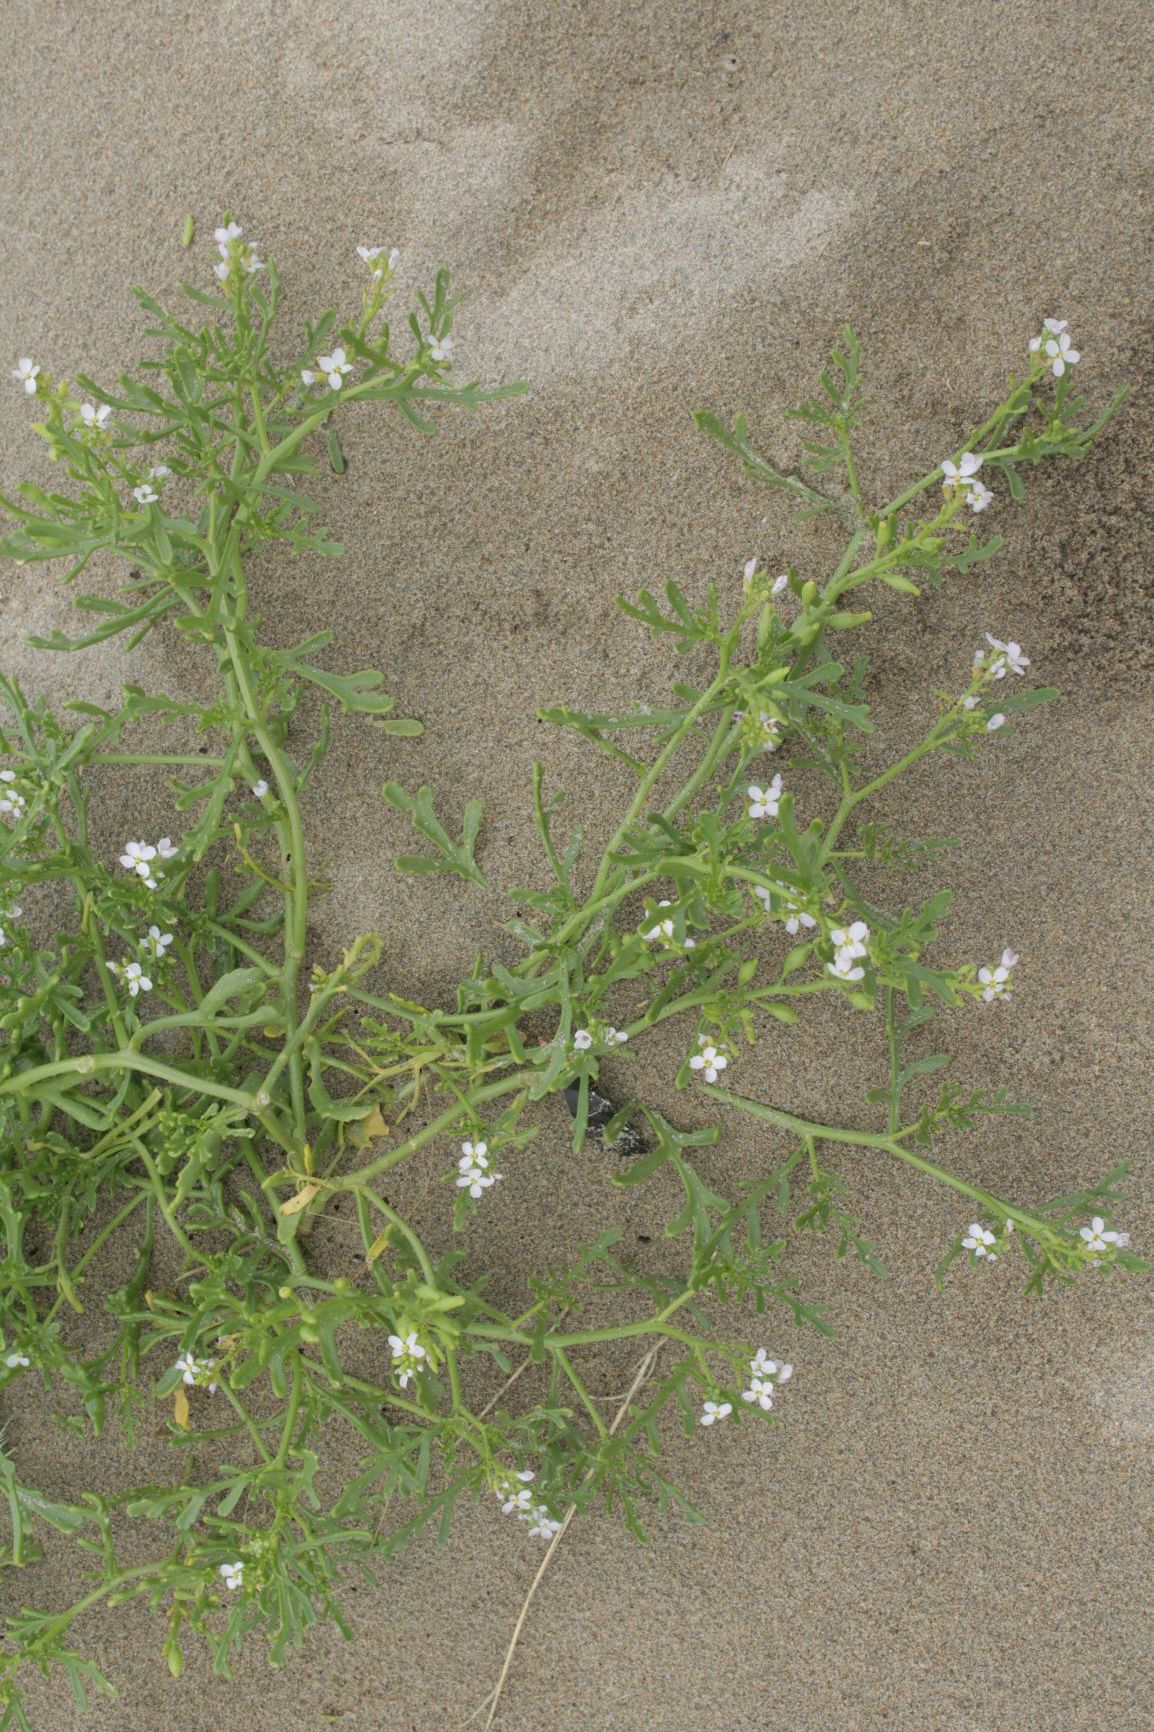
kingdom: Plantae
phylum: Tracheophyta
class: Magnoliopsida
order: Brassicales
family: Brassicaceae
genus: Cakile
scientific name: Cakile maritima
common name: Sea rocket
